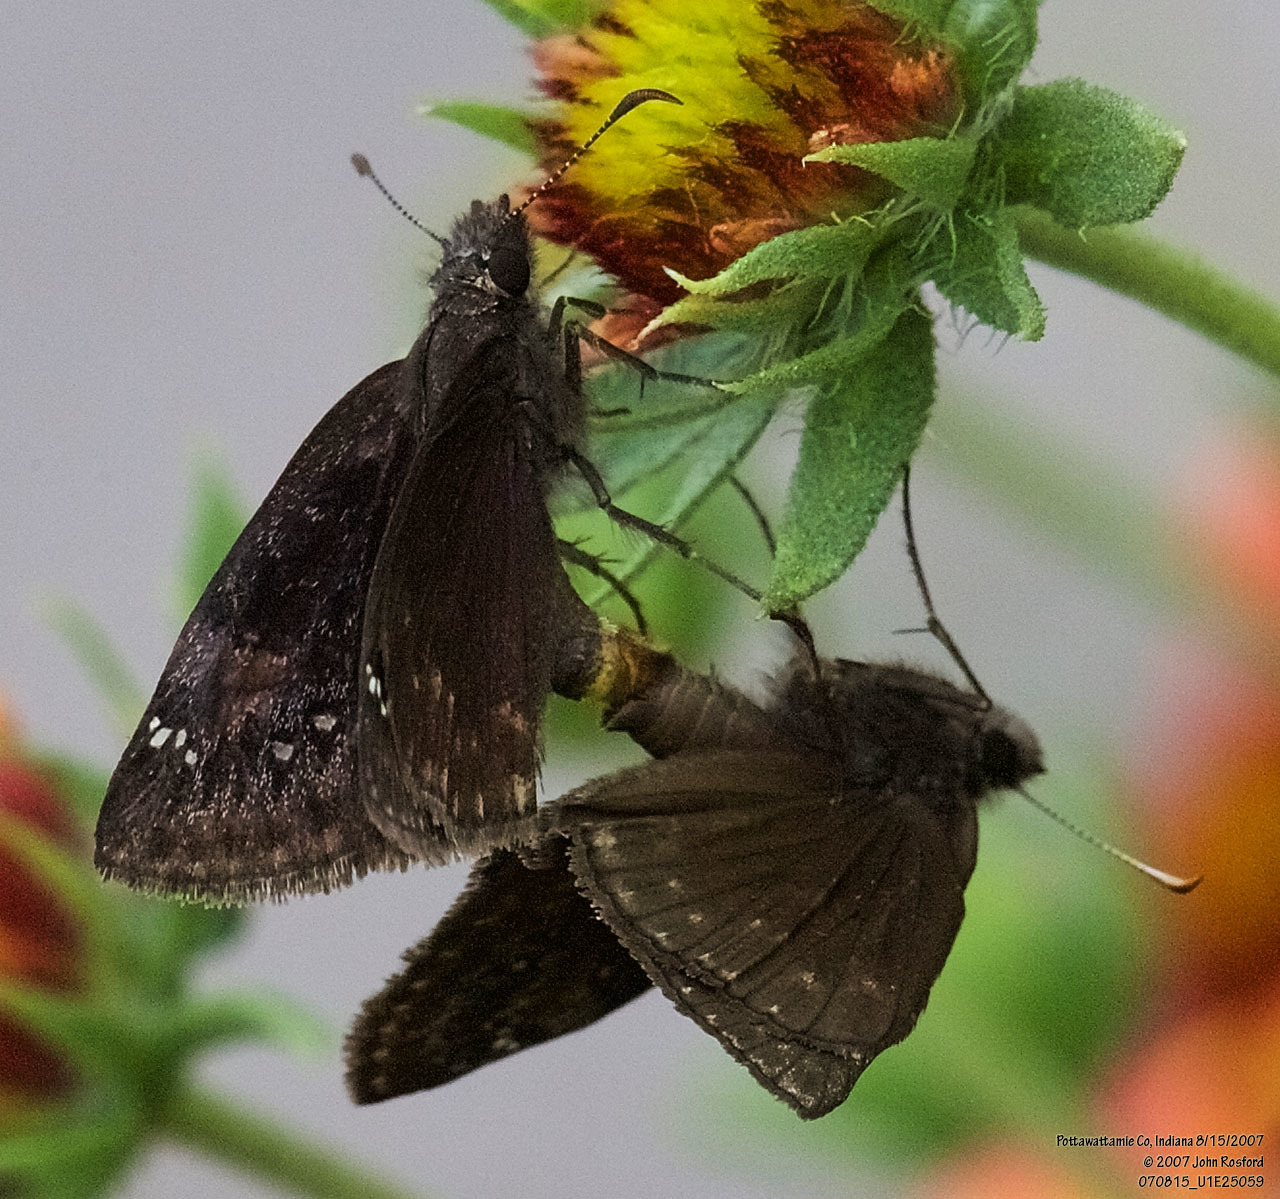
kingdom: Animalia
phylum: Arthropoda
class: Insecta
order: Lepidoptera
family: Hesperiidae
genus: Erynnis
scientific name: Erynnis baptisiae
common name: Wild indigo duskywing
